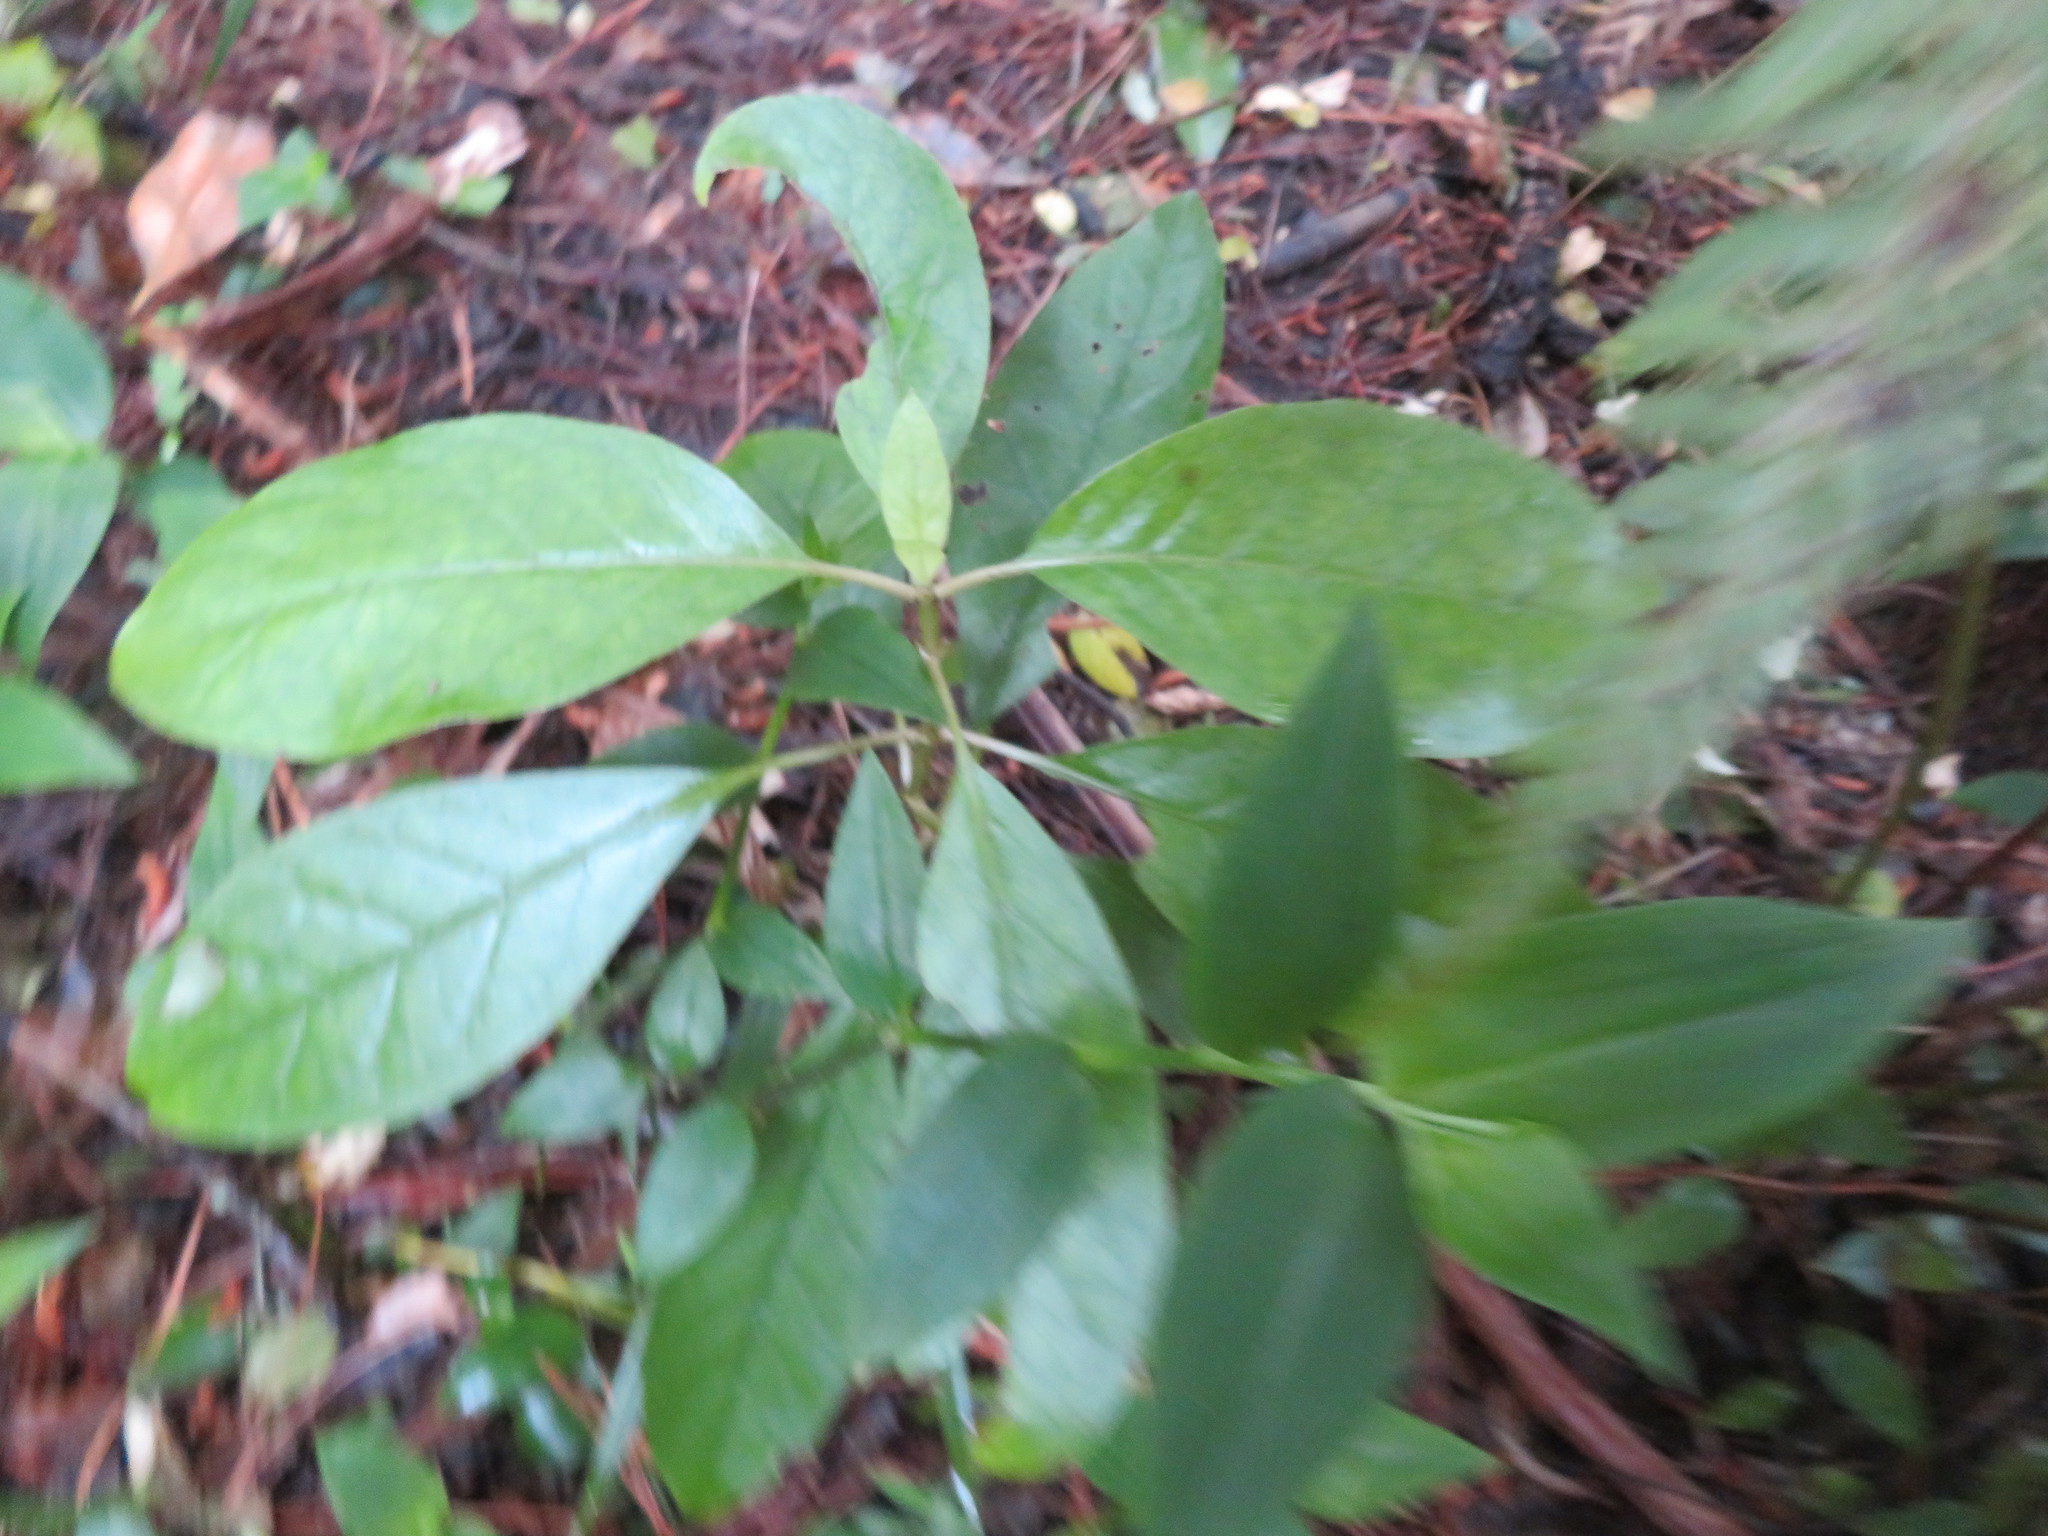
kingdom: Plantae
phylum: Tracheophyta
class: Magnoliopsida
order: Gentianales
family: Rubiaceae
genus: Coprosma
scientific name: Coprosma autumnalis
